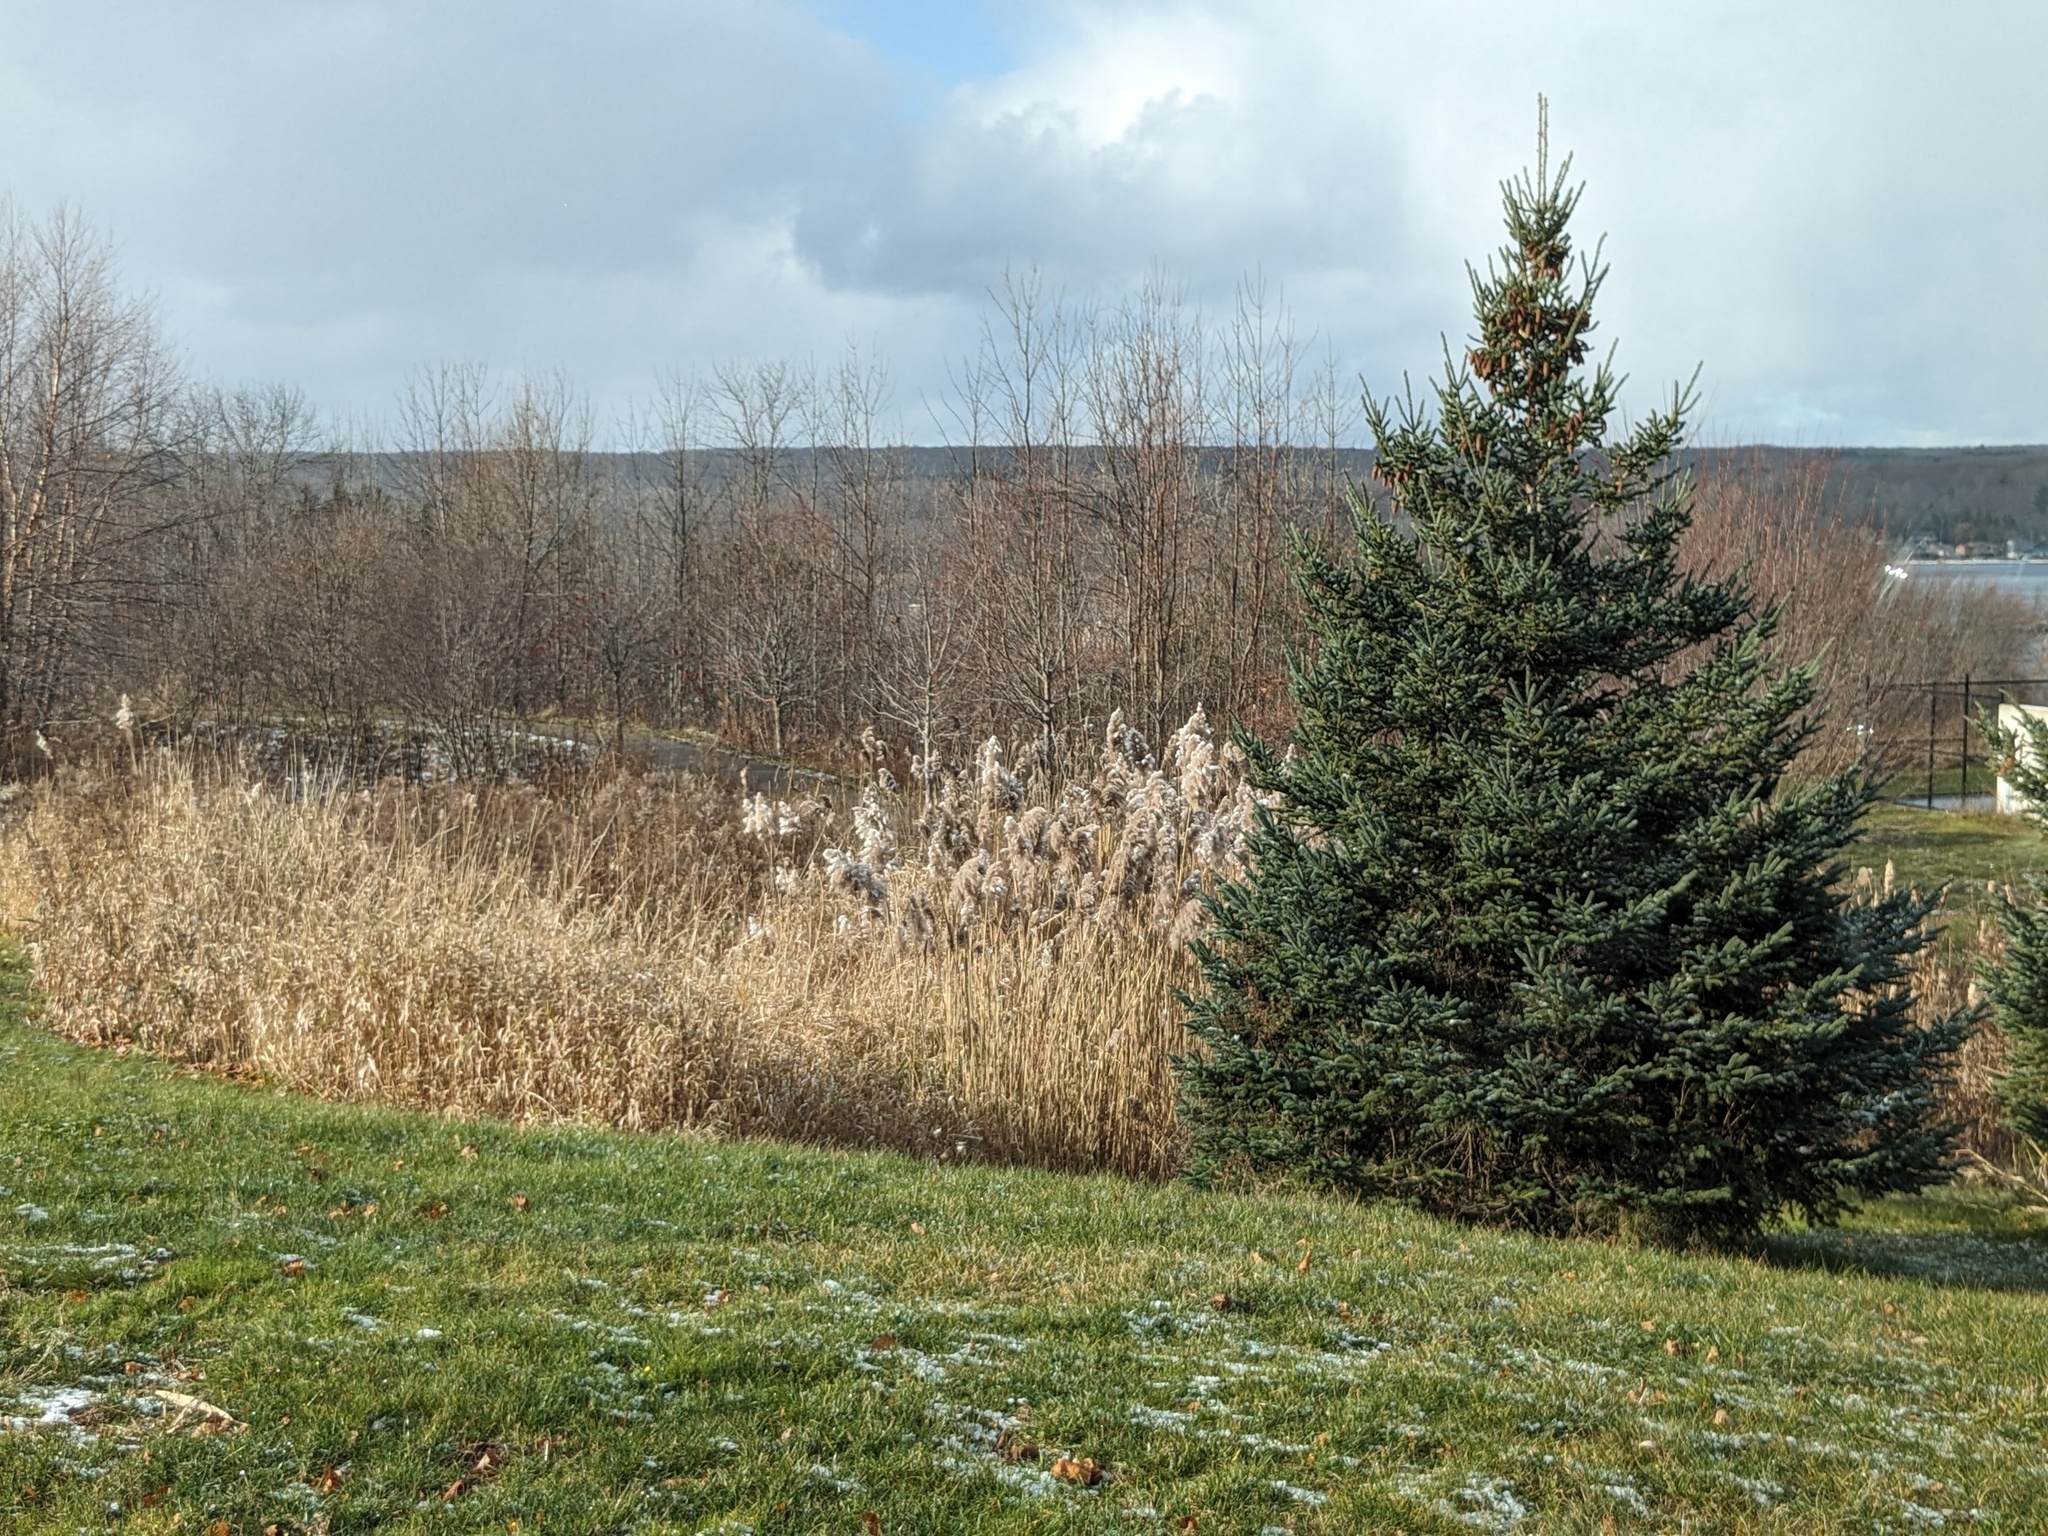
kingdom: Plantae
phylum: Tracheophyta
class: Liliopsida
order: Poales
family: Poaceae
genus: Phragmites
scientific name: Phragmites australis
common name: Common reed
